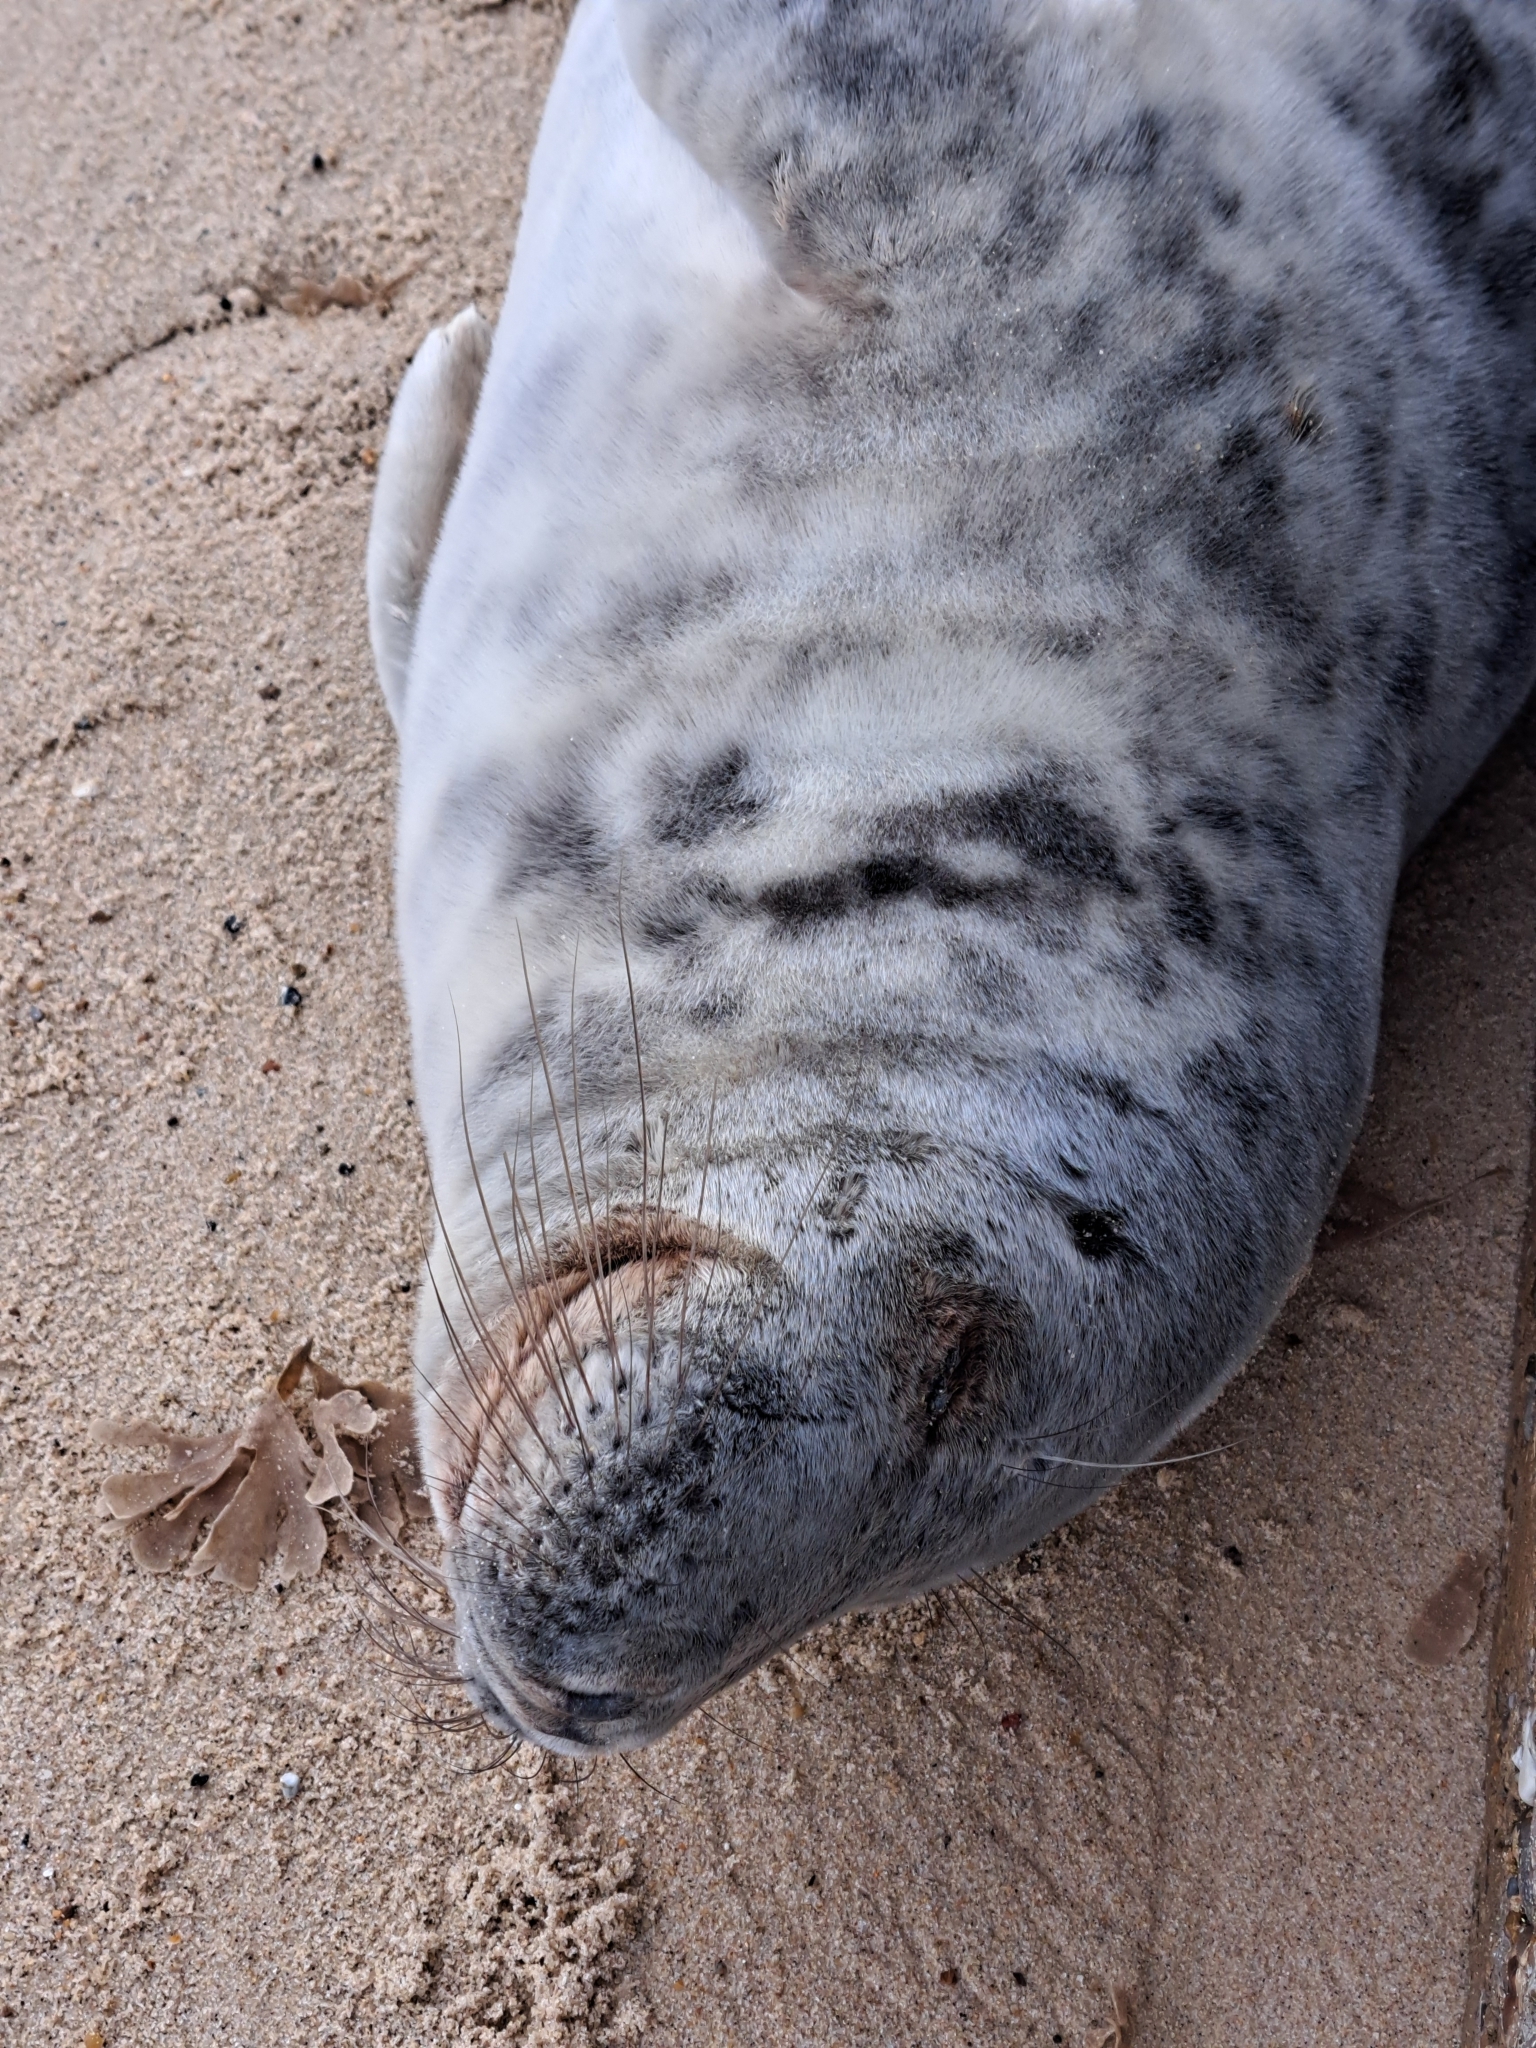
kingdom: Animalia
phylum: Chordata
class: Mammalia
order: Carnivora
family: Phocidae
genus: Halichoerus
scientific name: Halichoerus grypus
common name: Grey seal
